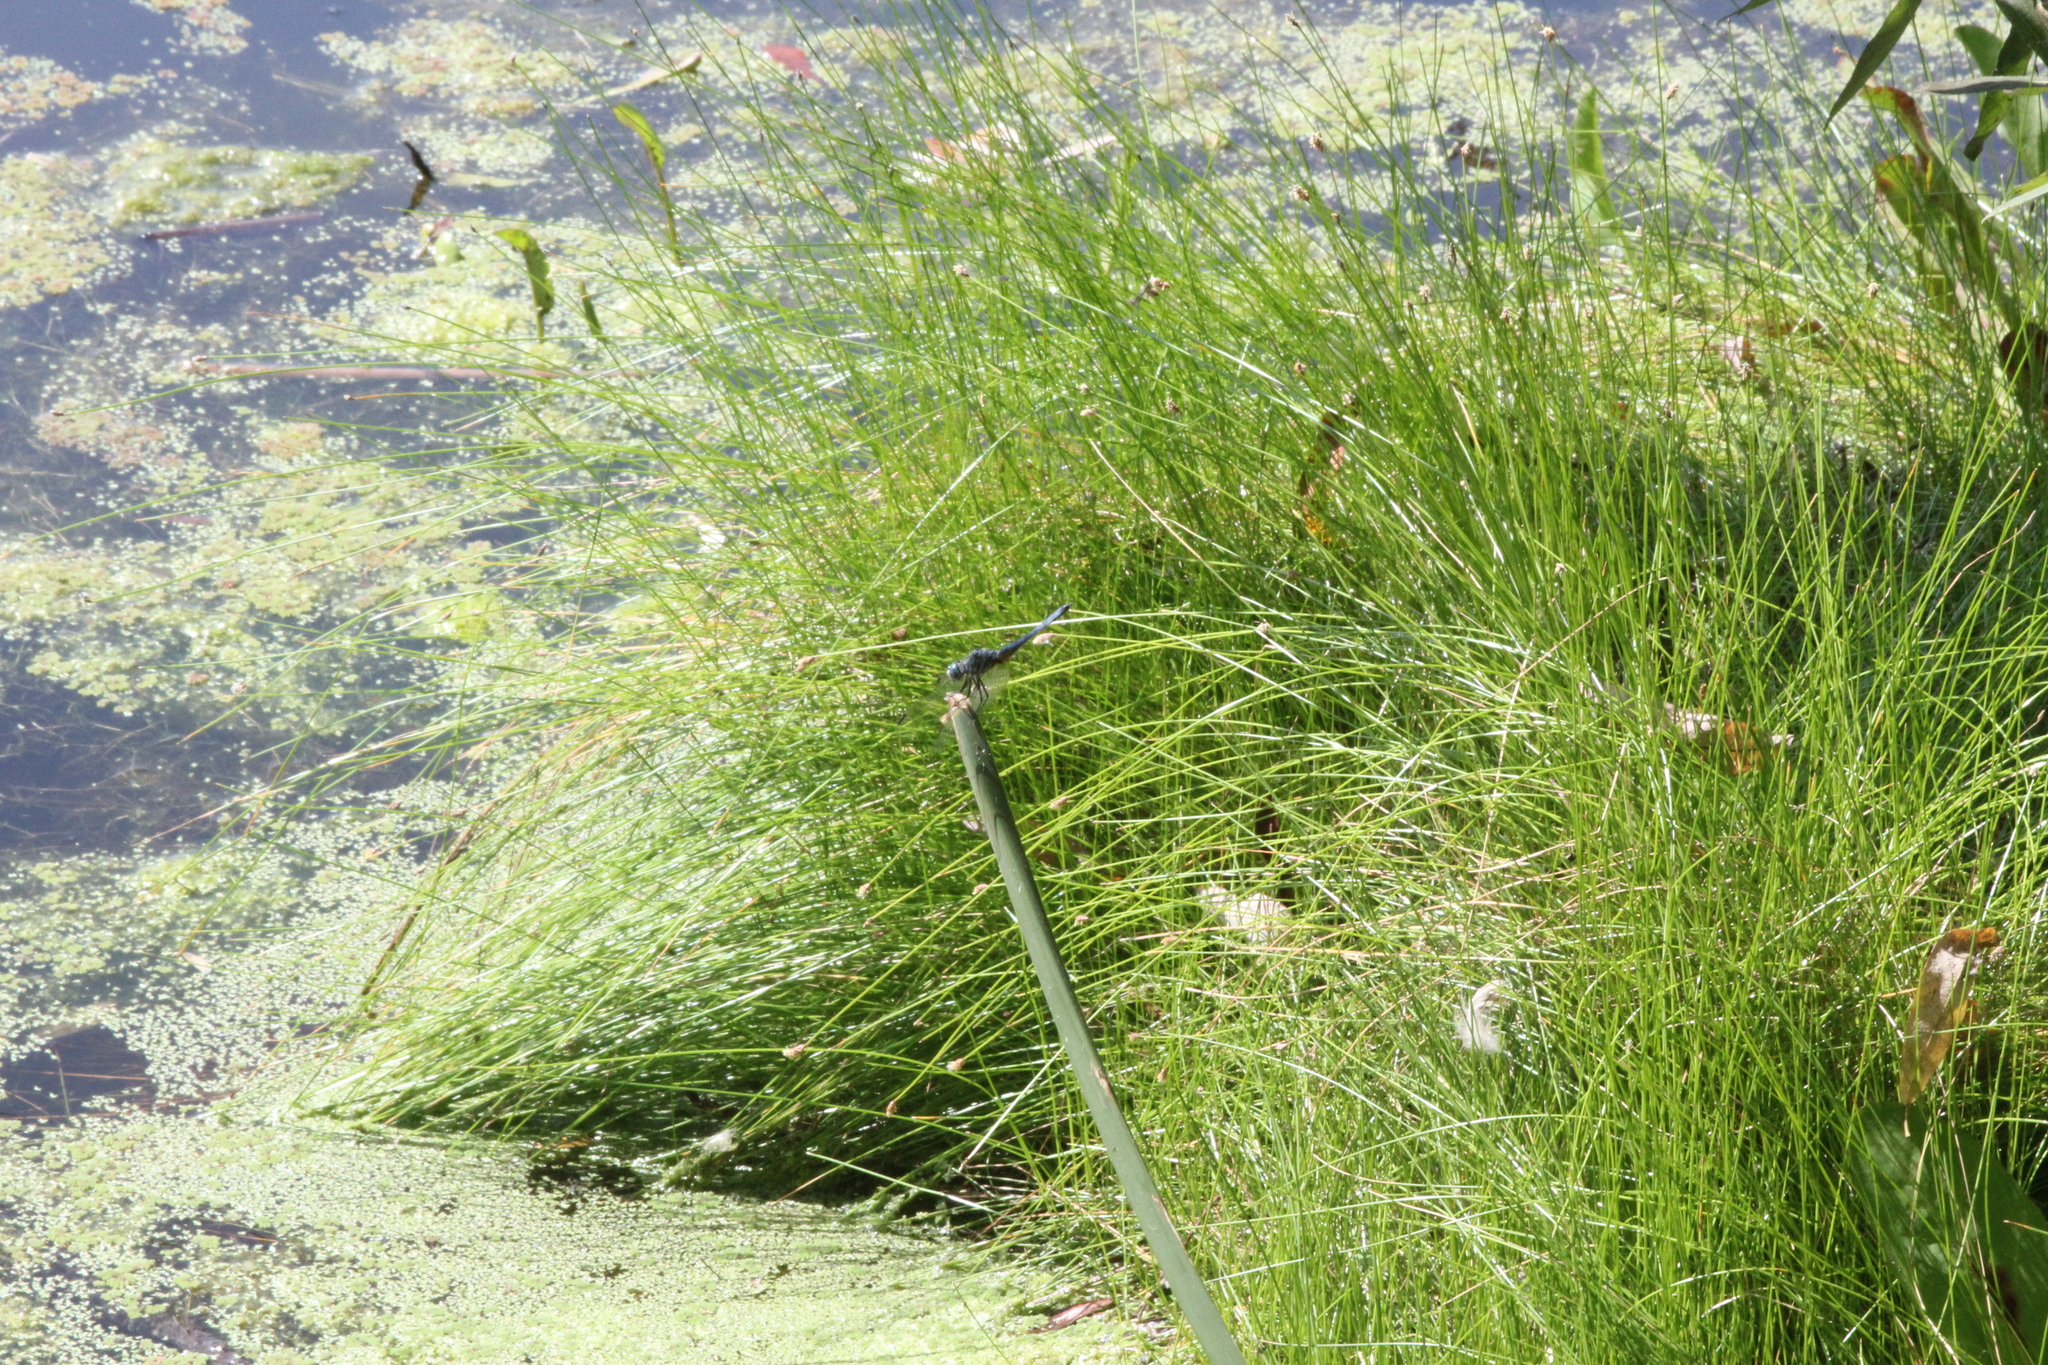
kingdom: Animalia
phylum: Arthropoda
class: Insecta
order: Odonata
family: Libellulidae
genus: Pachydiplax
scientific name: Pachydiplax longipennis
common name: Blue dasher
